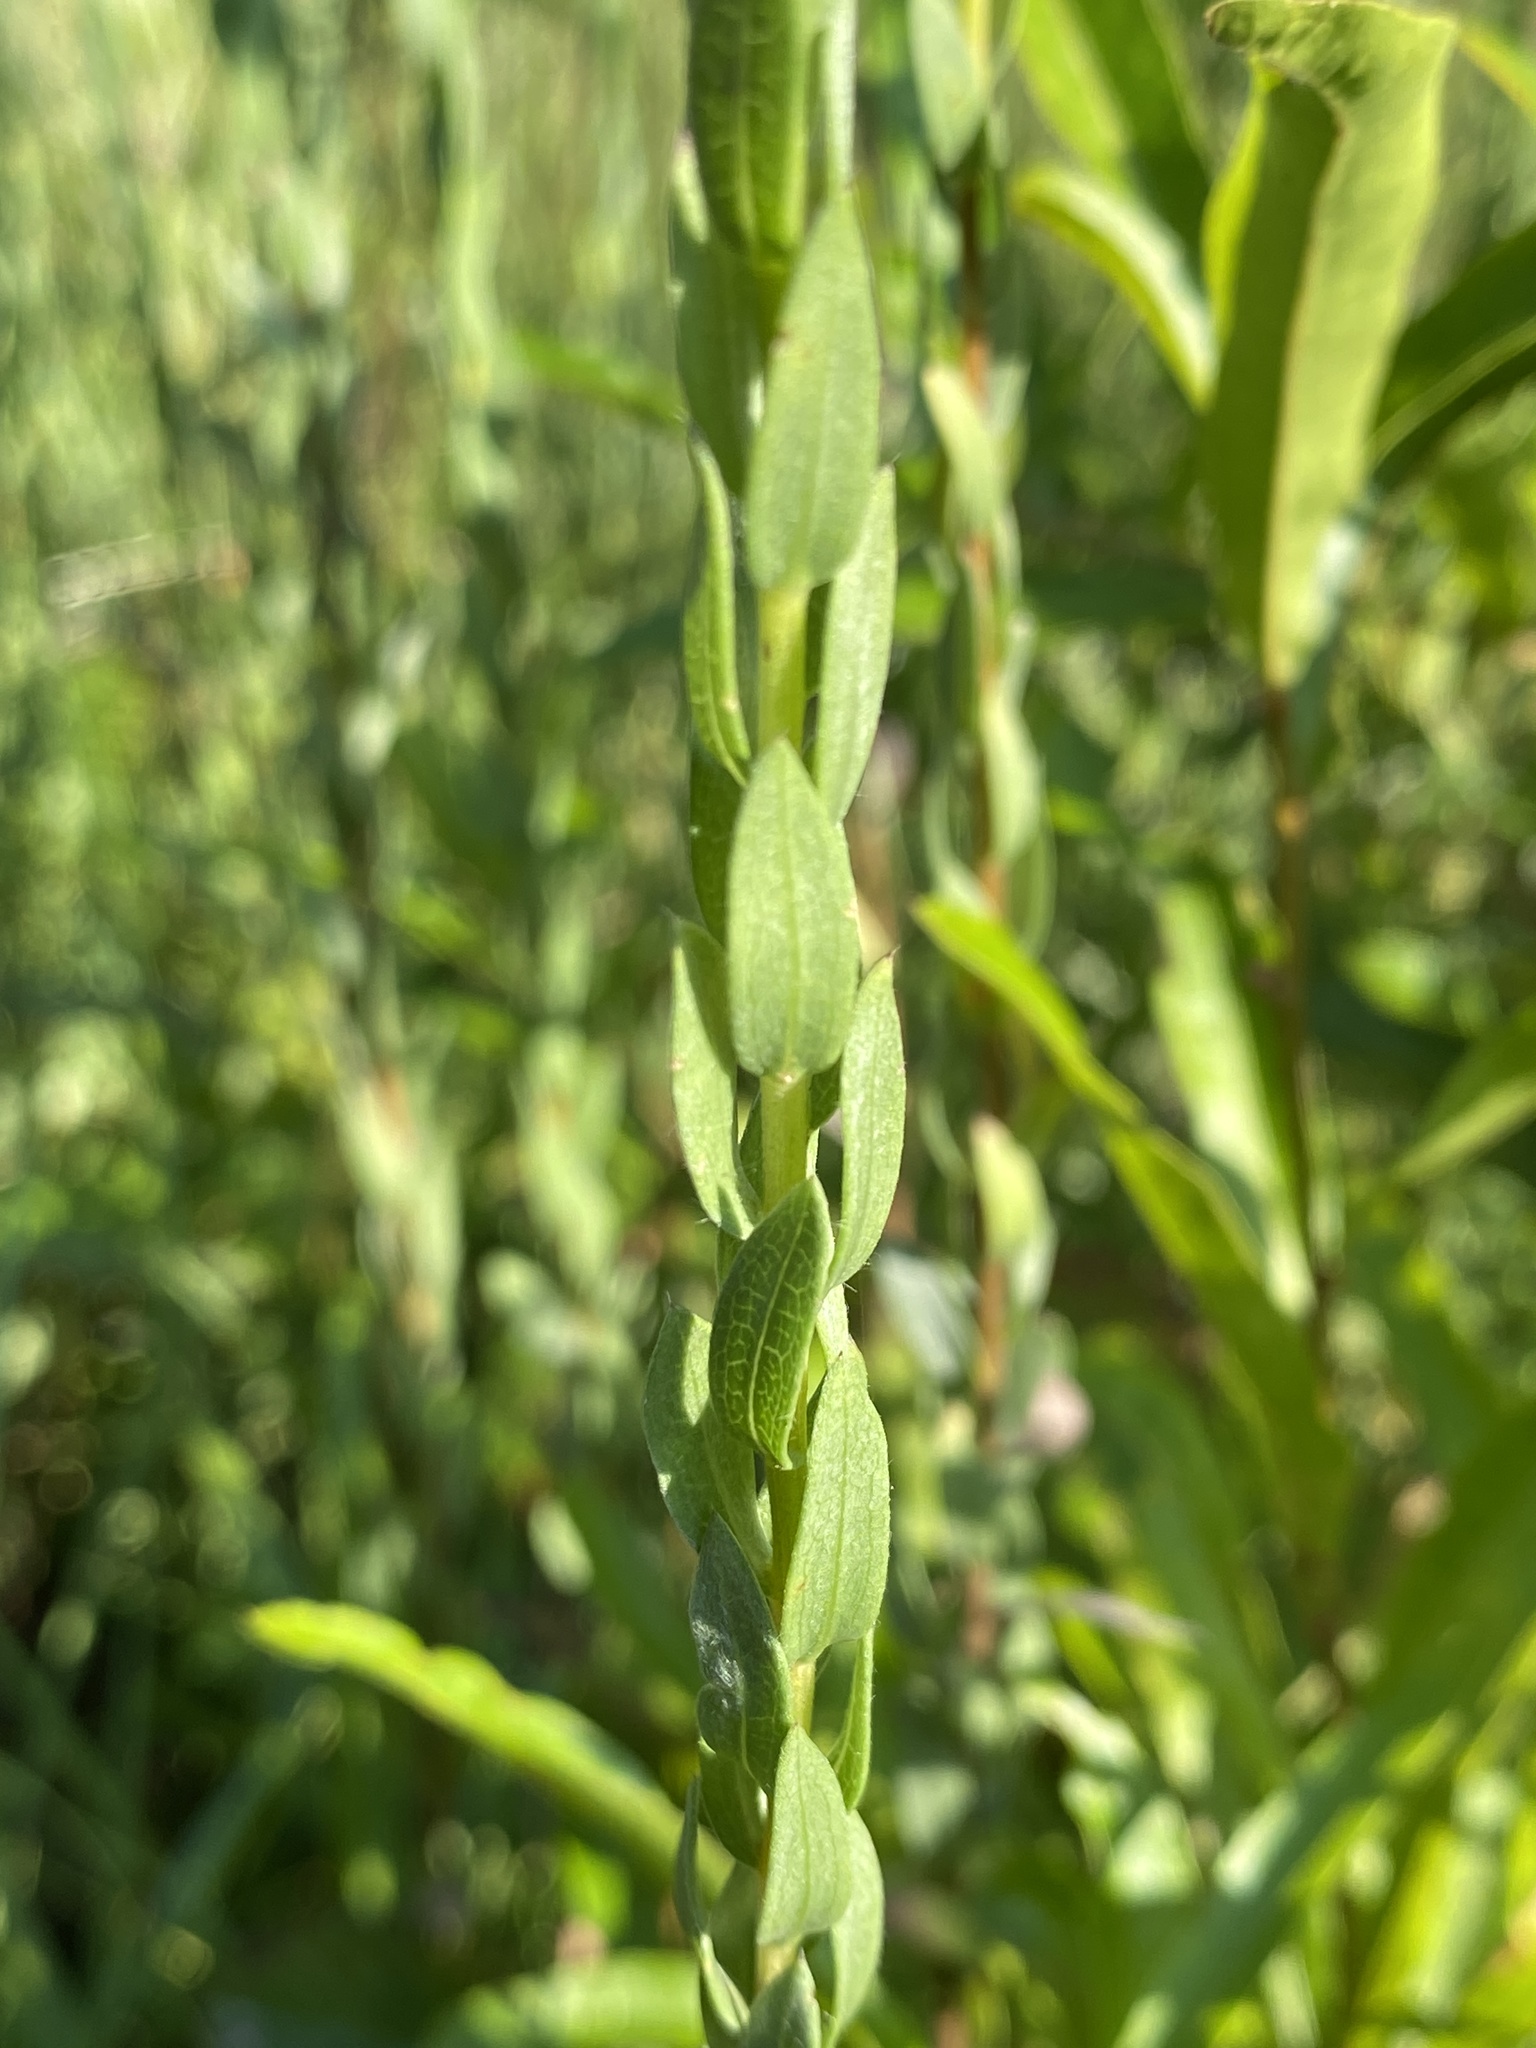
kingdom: Plantae
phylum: Tracheophyta
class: Magnoliopsida
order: Asterales
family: Asteraceae
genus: Symphyotrichum
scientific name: Symphyotrichum concolor
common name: Eastern silver aster
